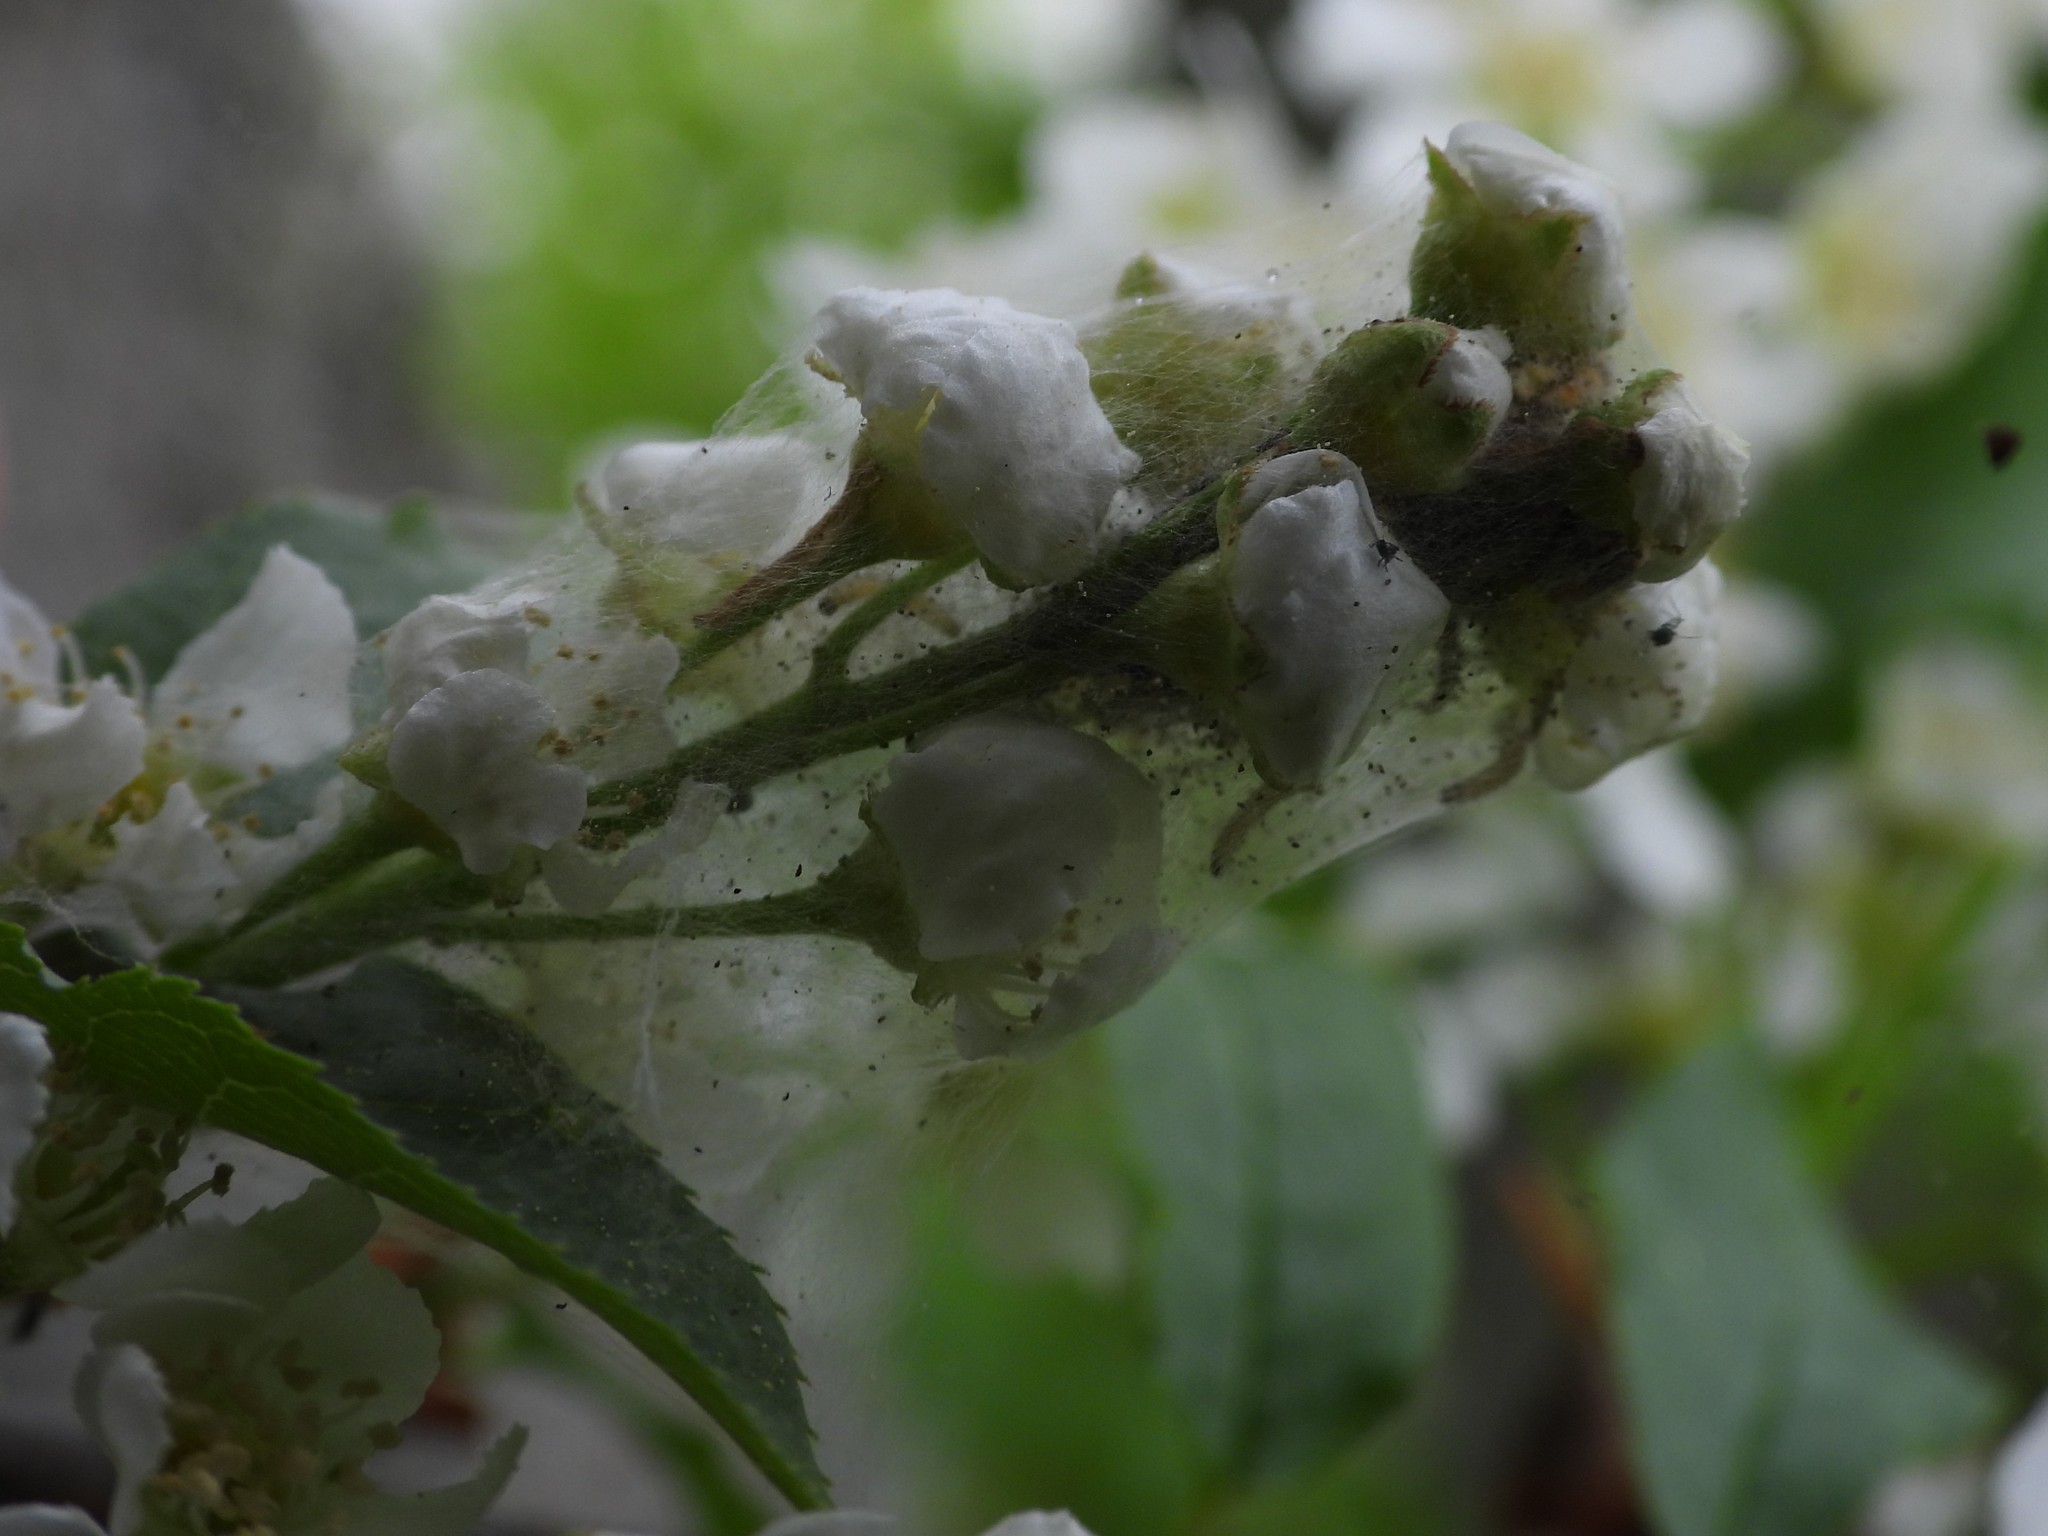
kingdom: Animalia
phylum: Arthropoda
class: Insecta
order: Lepidoptera
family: Yponomeutidae
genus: Yponomeuta
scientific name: Yponomeuta evonymella
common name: Bird-cherry ermine
